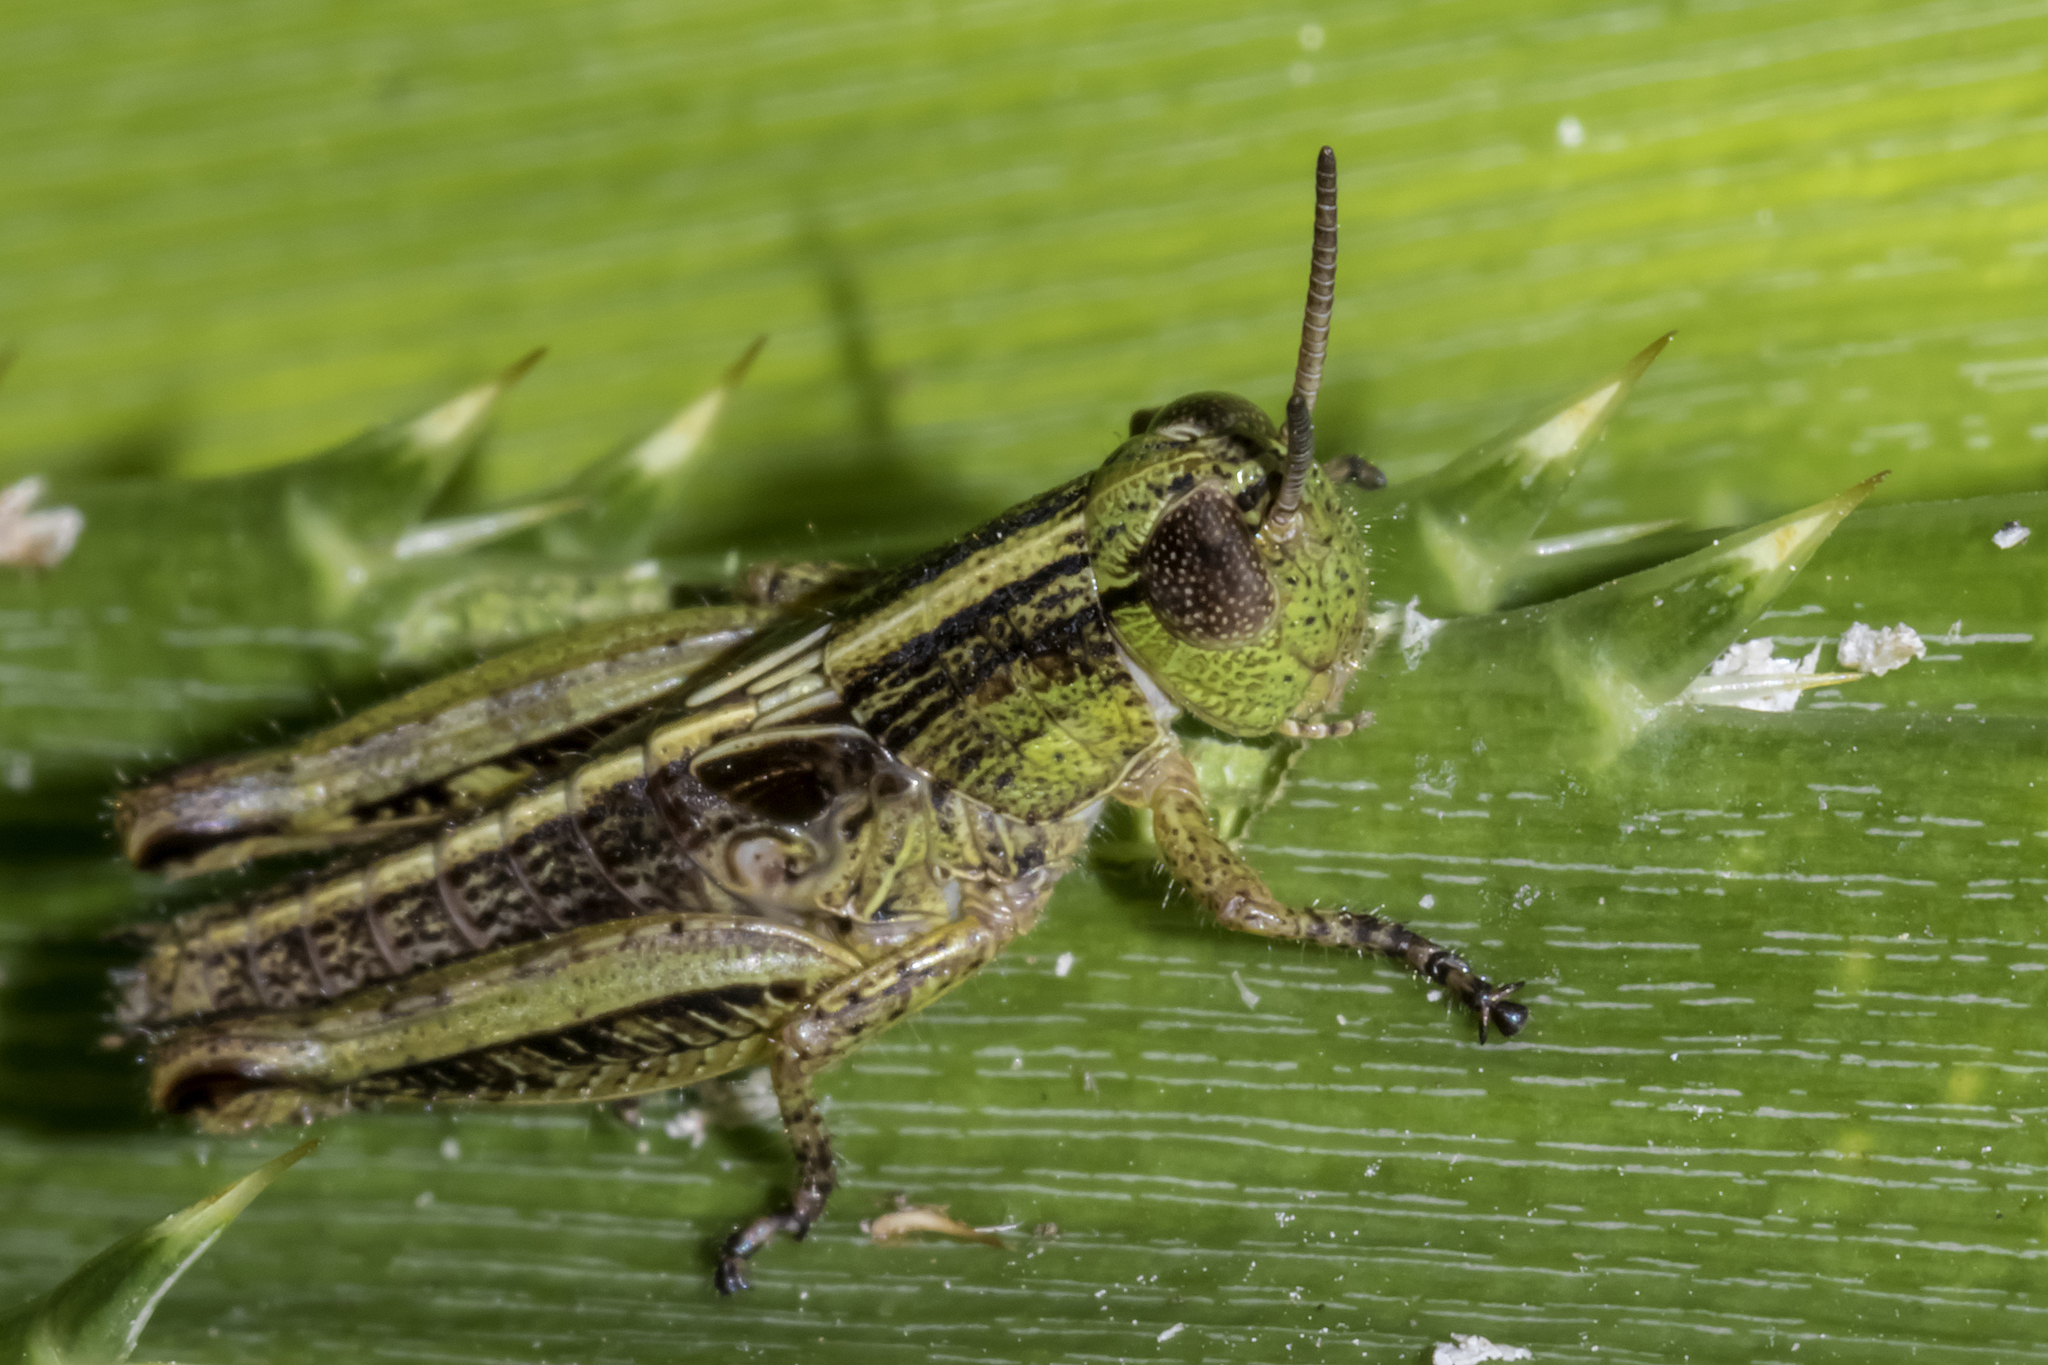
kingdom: Animalia
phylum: Arthropoda
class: Insecta
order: Orthoptera
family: Acrididae
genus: Scotussa
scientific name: Scotussa cliens
